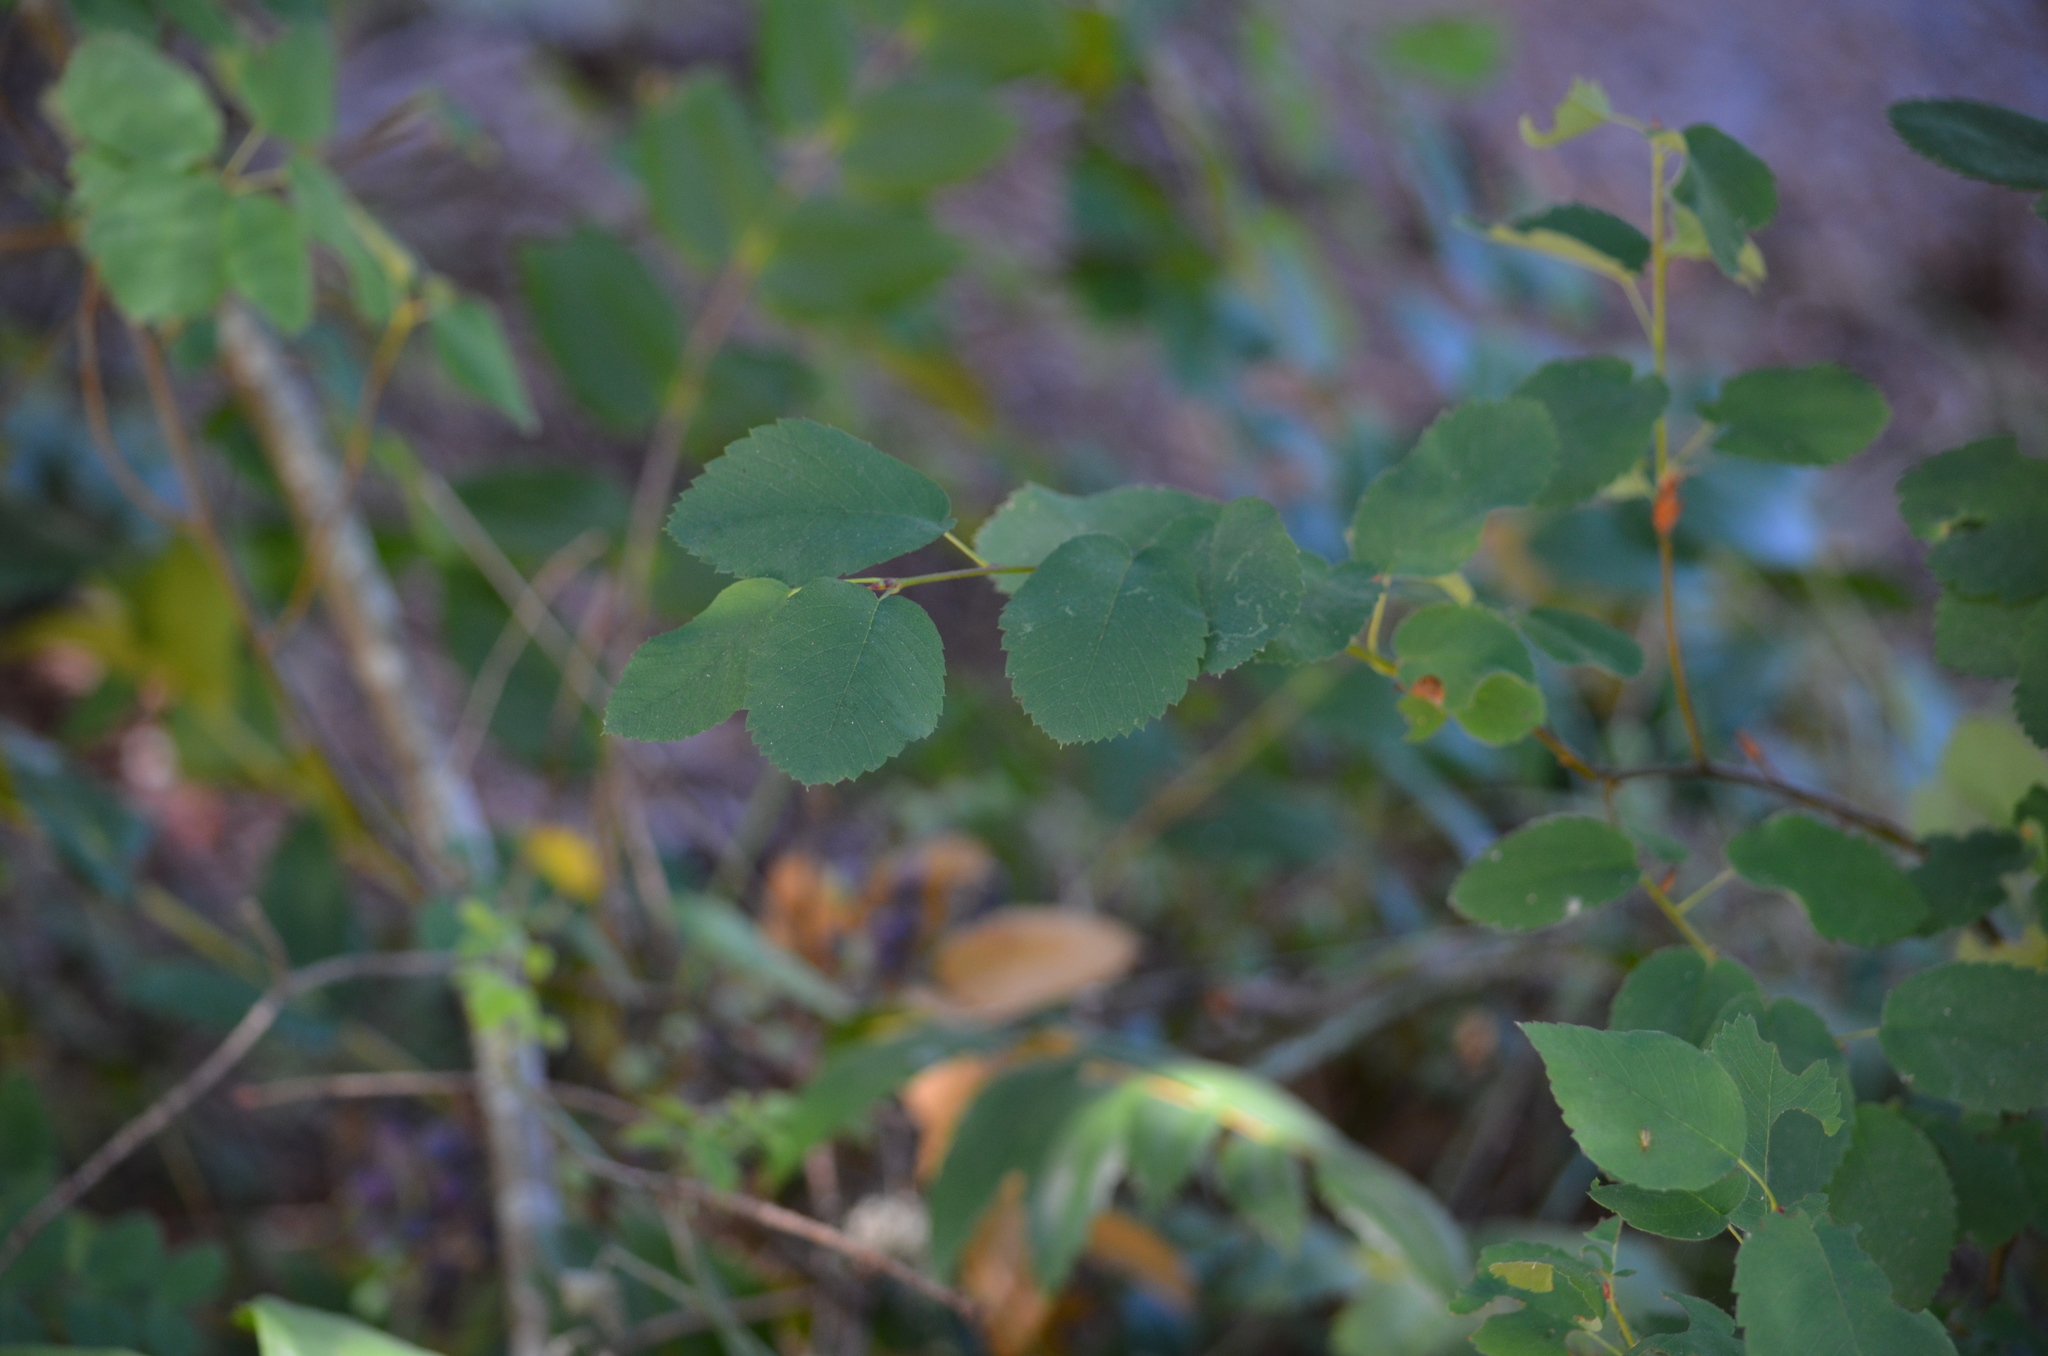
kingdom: Plantae
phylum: Tracheophyta
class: Magnoliopsida
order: Rosales
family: Rosaceae
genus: Amelanchier
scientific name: Amelanchier alnifolia
